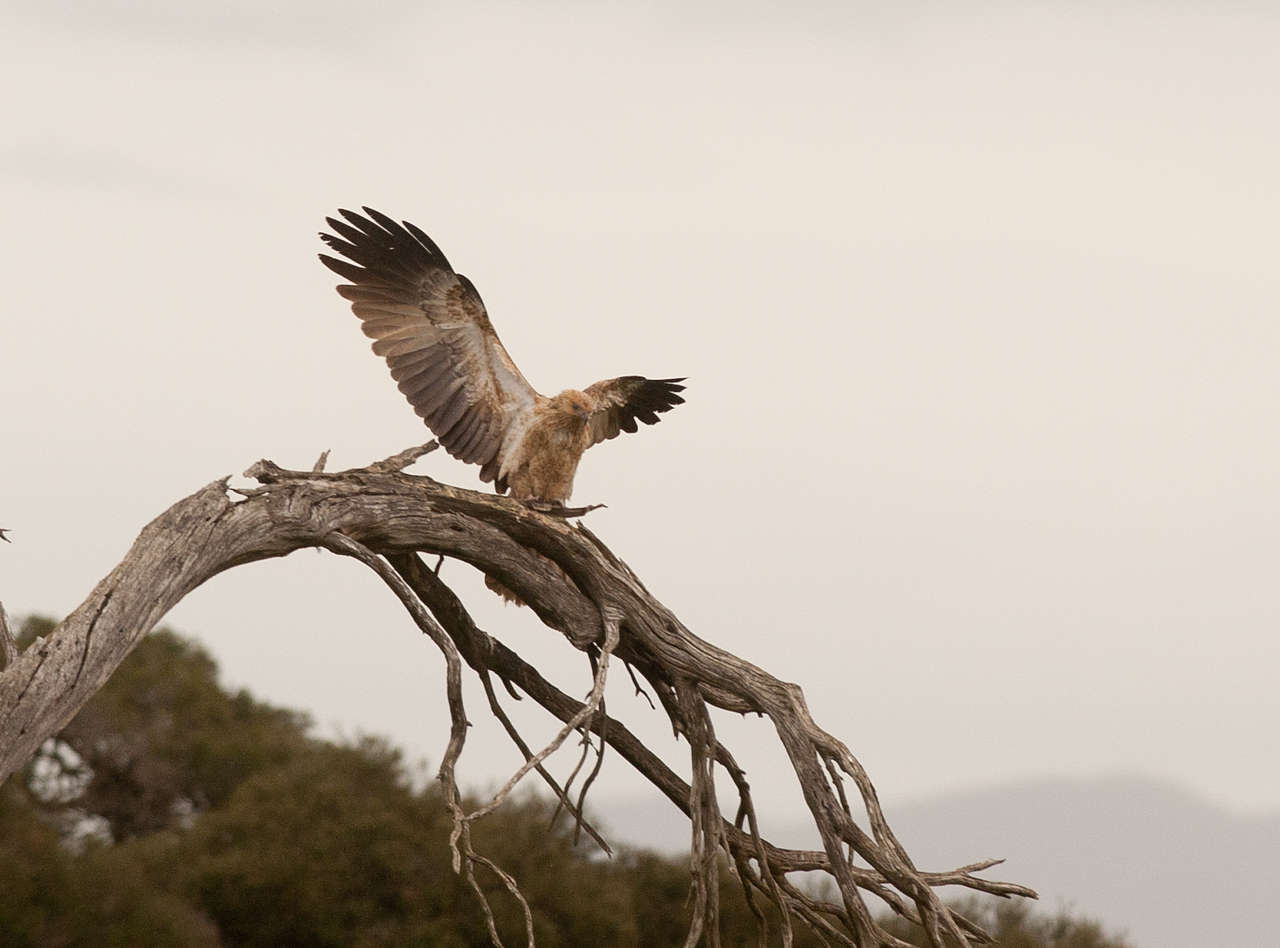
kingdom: Animalia
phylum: Chordata
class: Aves
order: Accipitriformes
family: Accipitridae
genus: Haliastur
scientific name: Haliastur sphenurus
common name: Whistling kite
